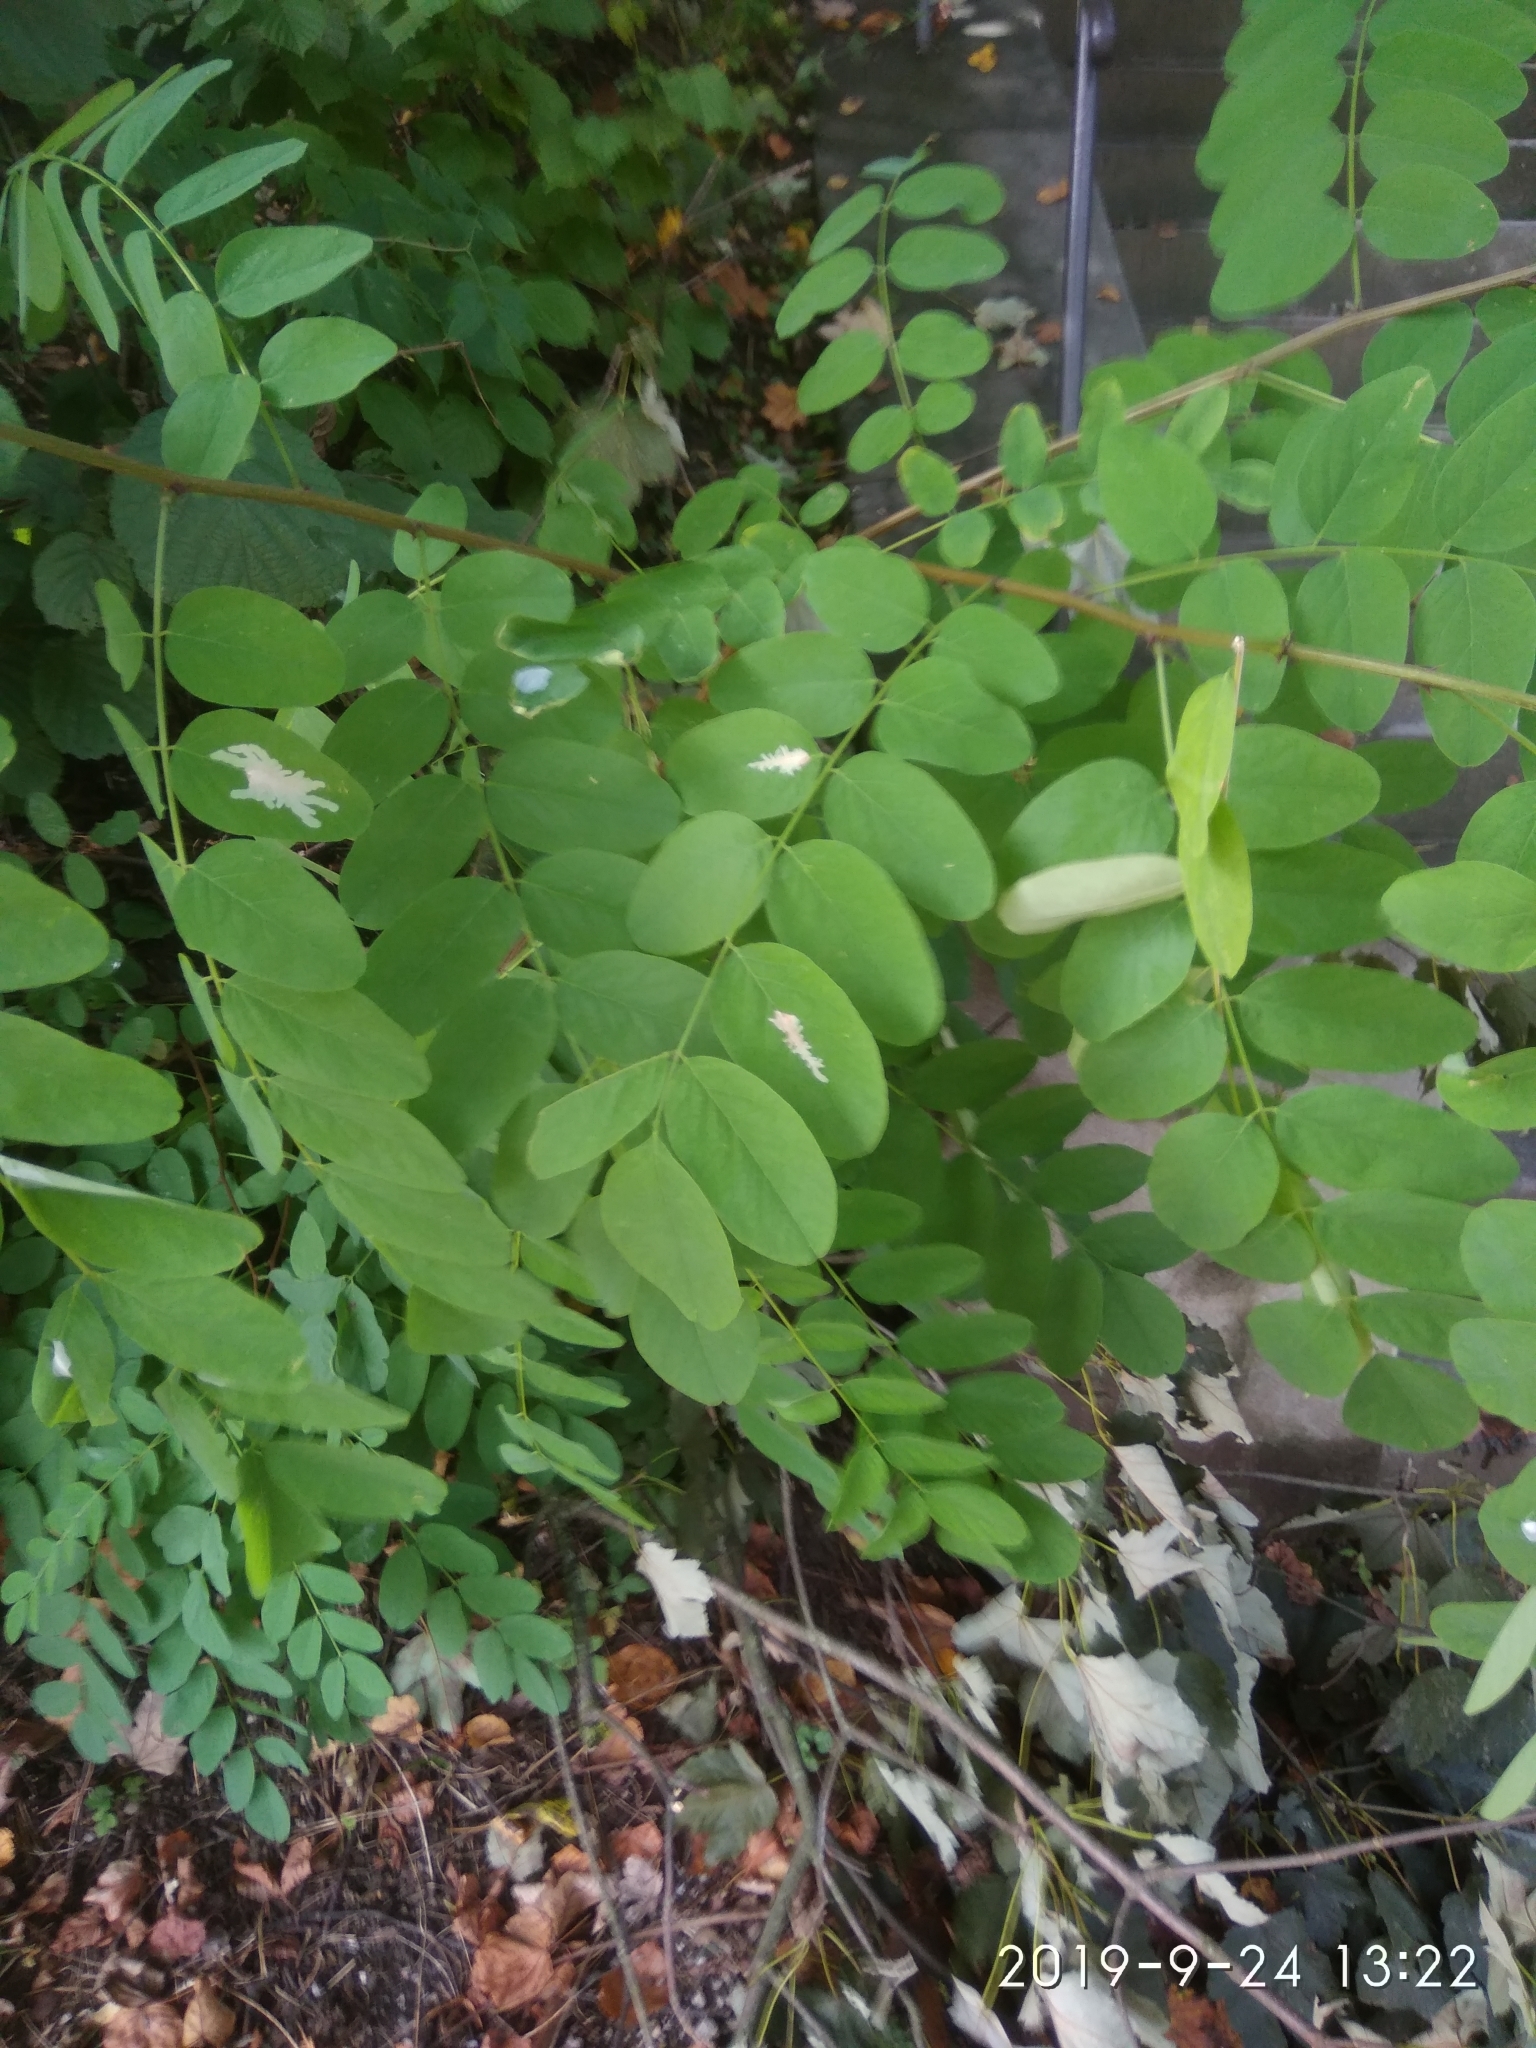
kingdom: Plantae
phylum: Tracheophyta
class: Magnoliopsida
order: Fabales
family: Fabaceae
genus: Robinia
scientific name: Robinia pseudoacacia
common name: Black locust
